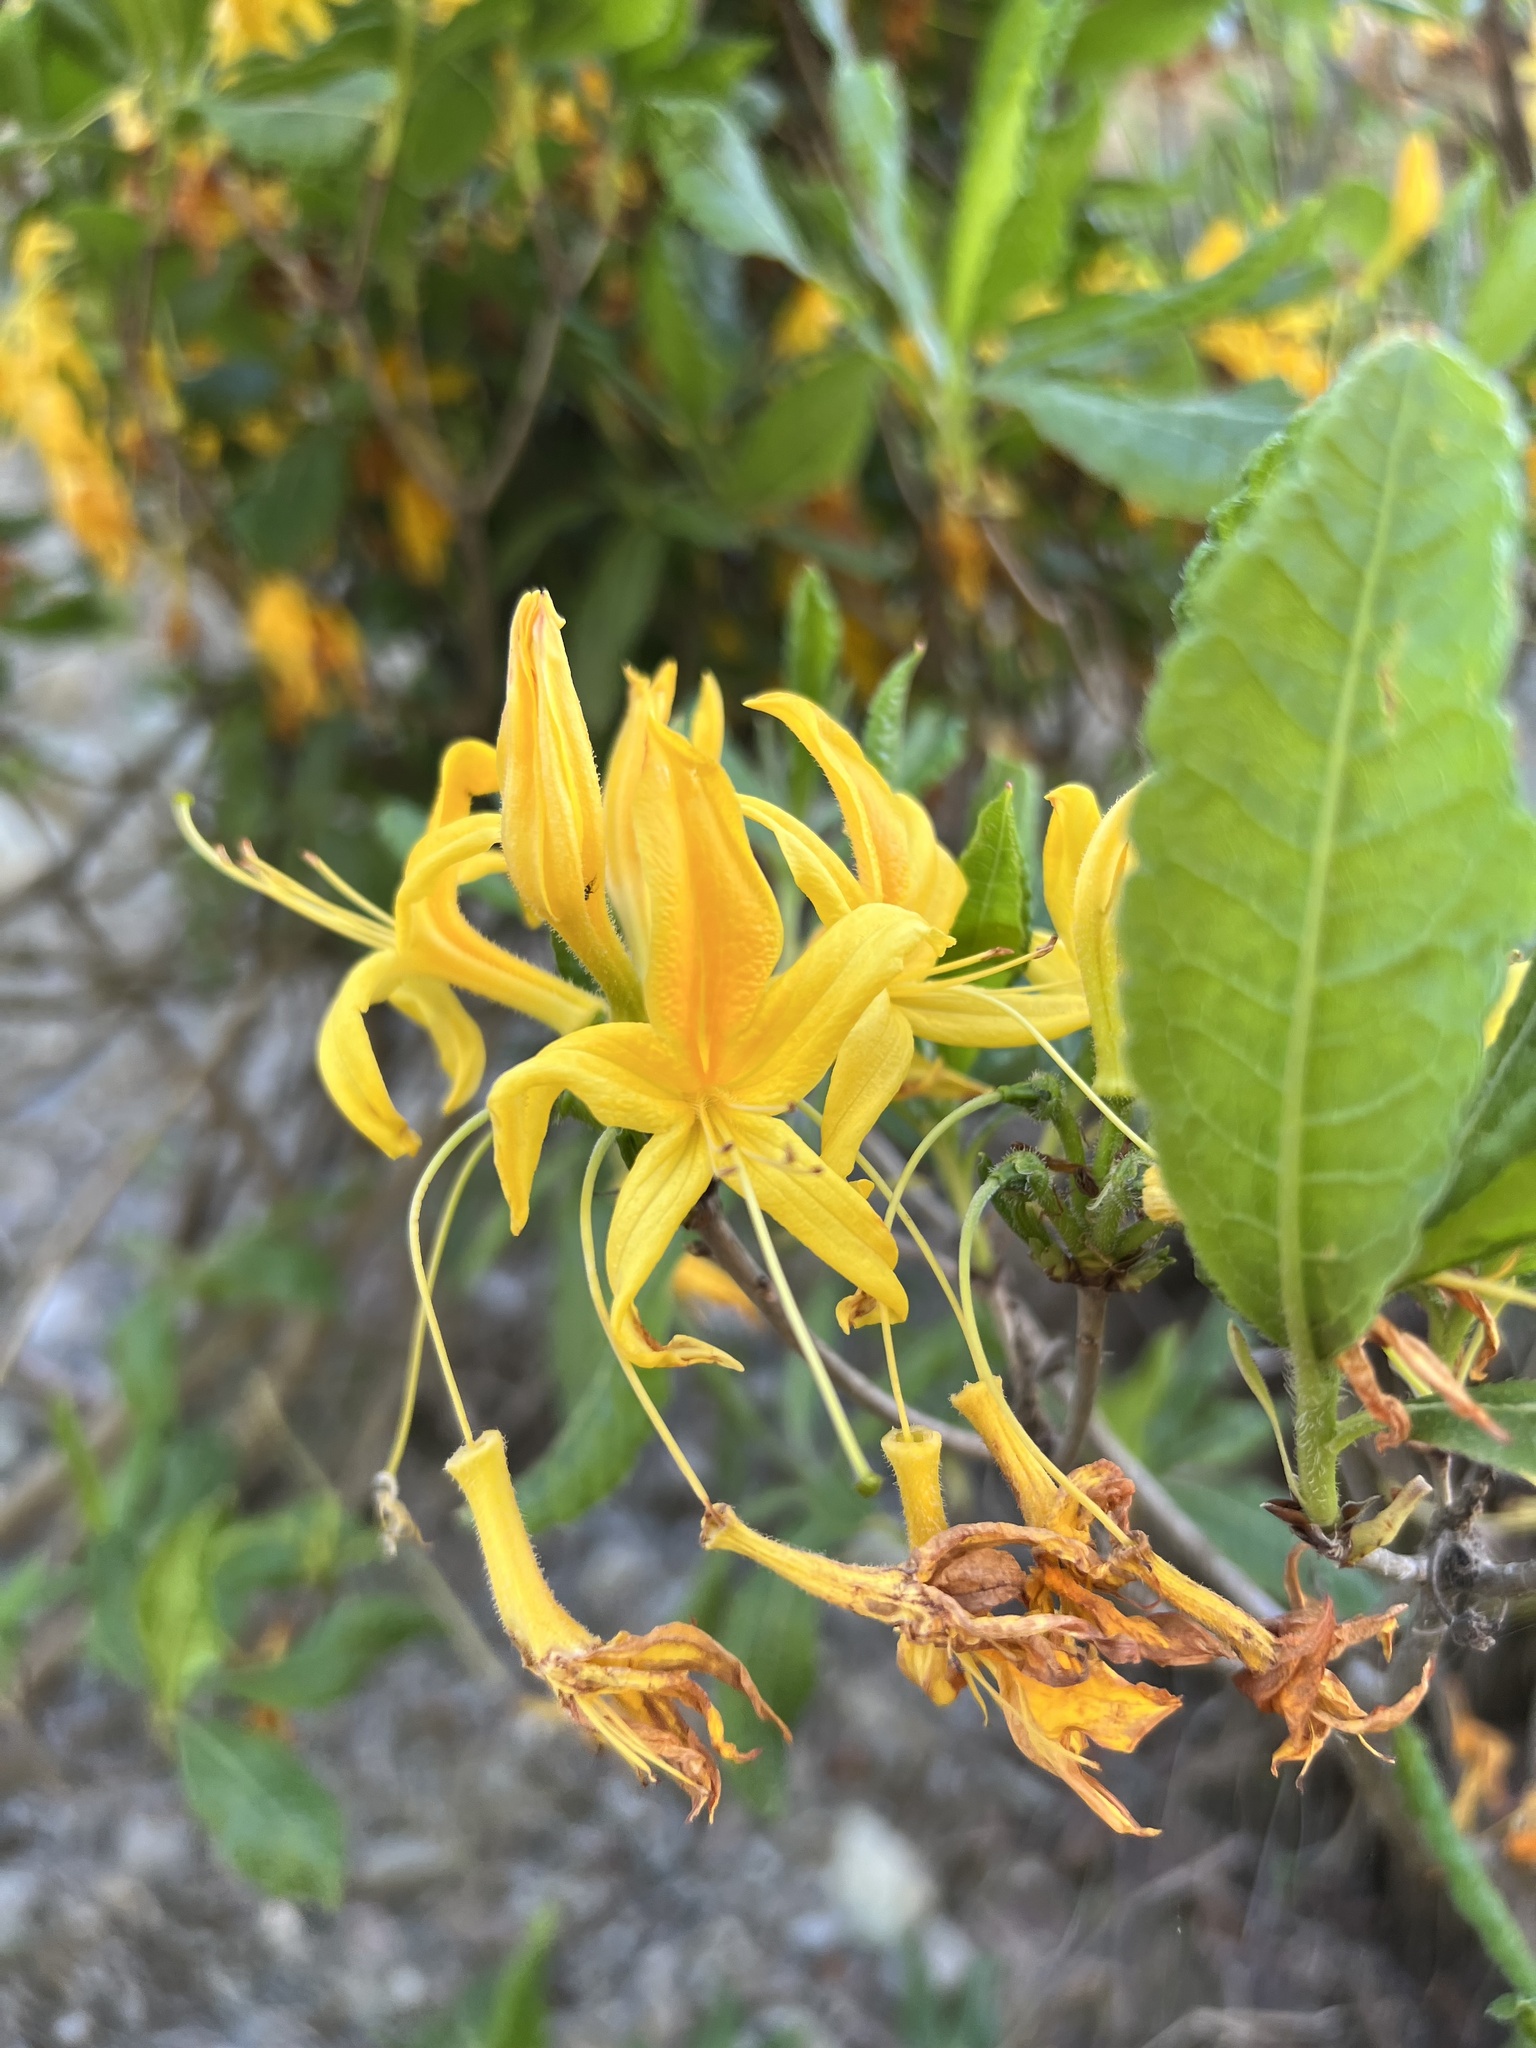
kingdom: Plantae
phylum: Tracheophyta
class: Magnoliopsida
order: Ericales
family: Ericaceae
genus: Rhododendron
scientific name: Rhododendron luteum
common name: Yellow azalea
